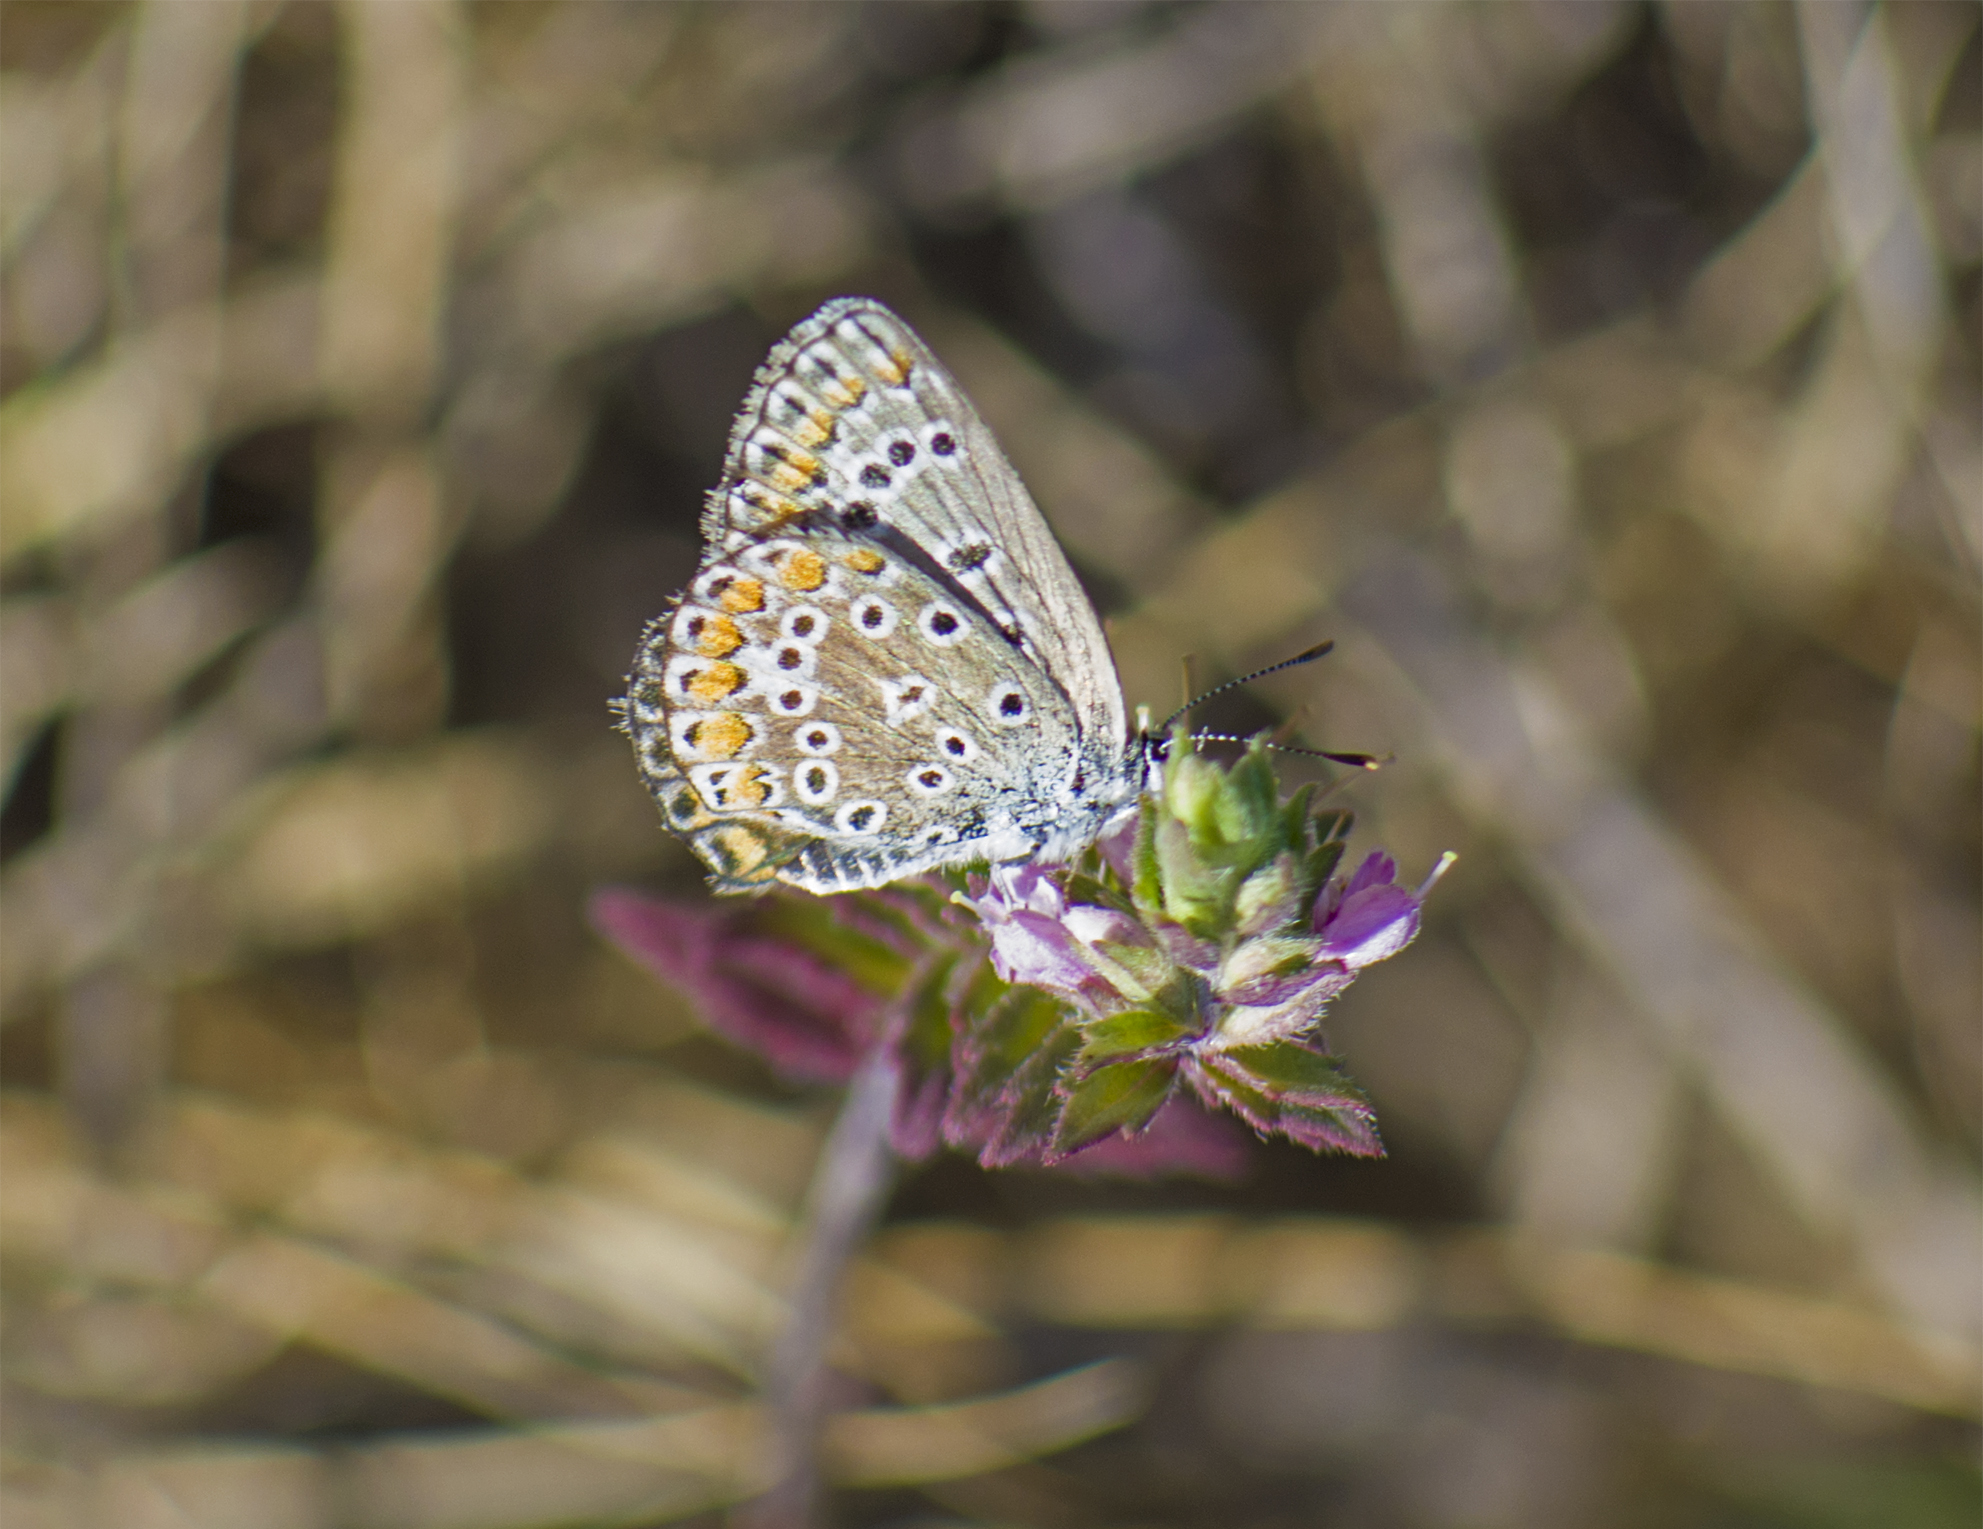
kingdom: Animalia
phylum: Arthropoda
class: Insecta
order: Lepidoptera
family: Lycaenidae
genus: Polyommatus
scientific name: Polyommatus icarus
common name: Common blue
